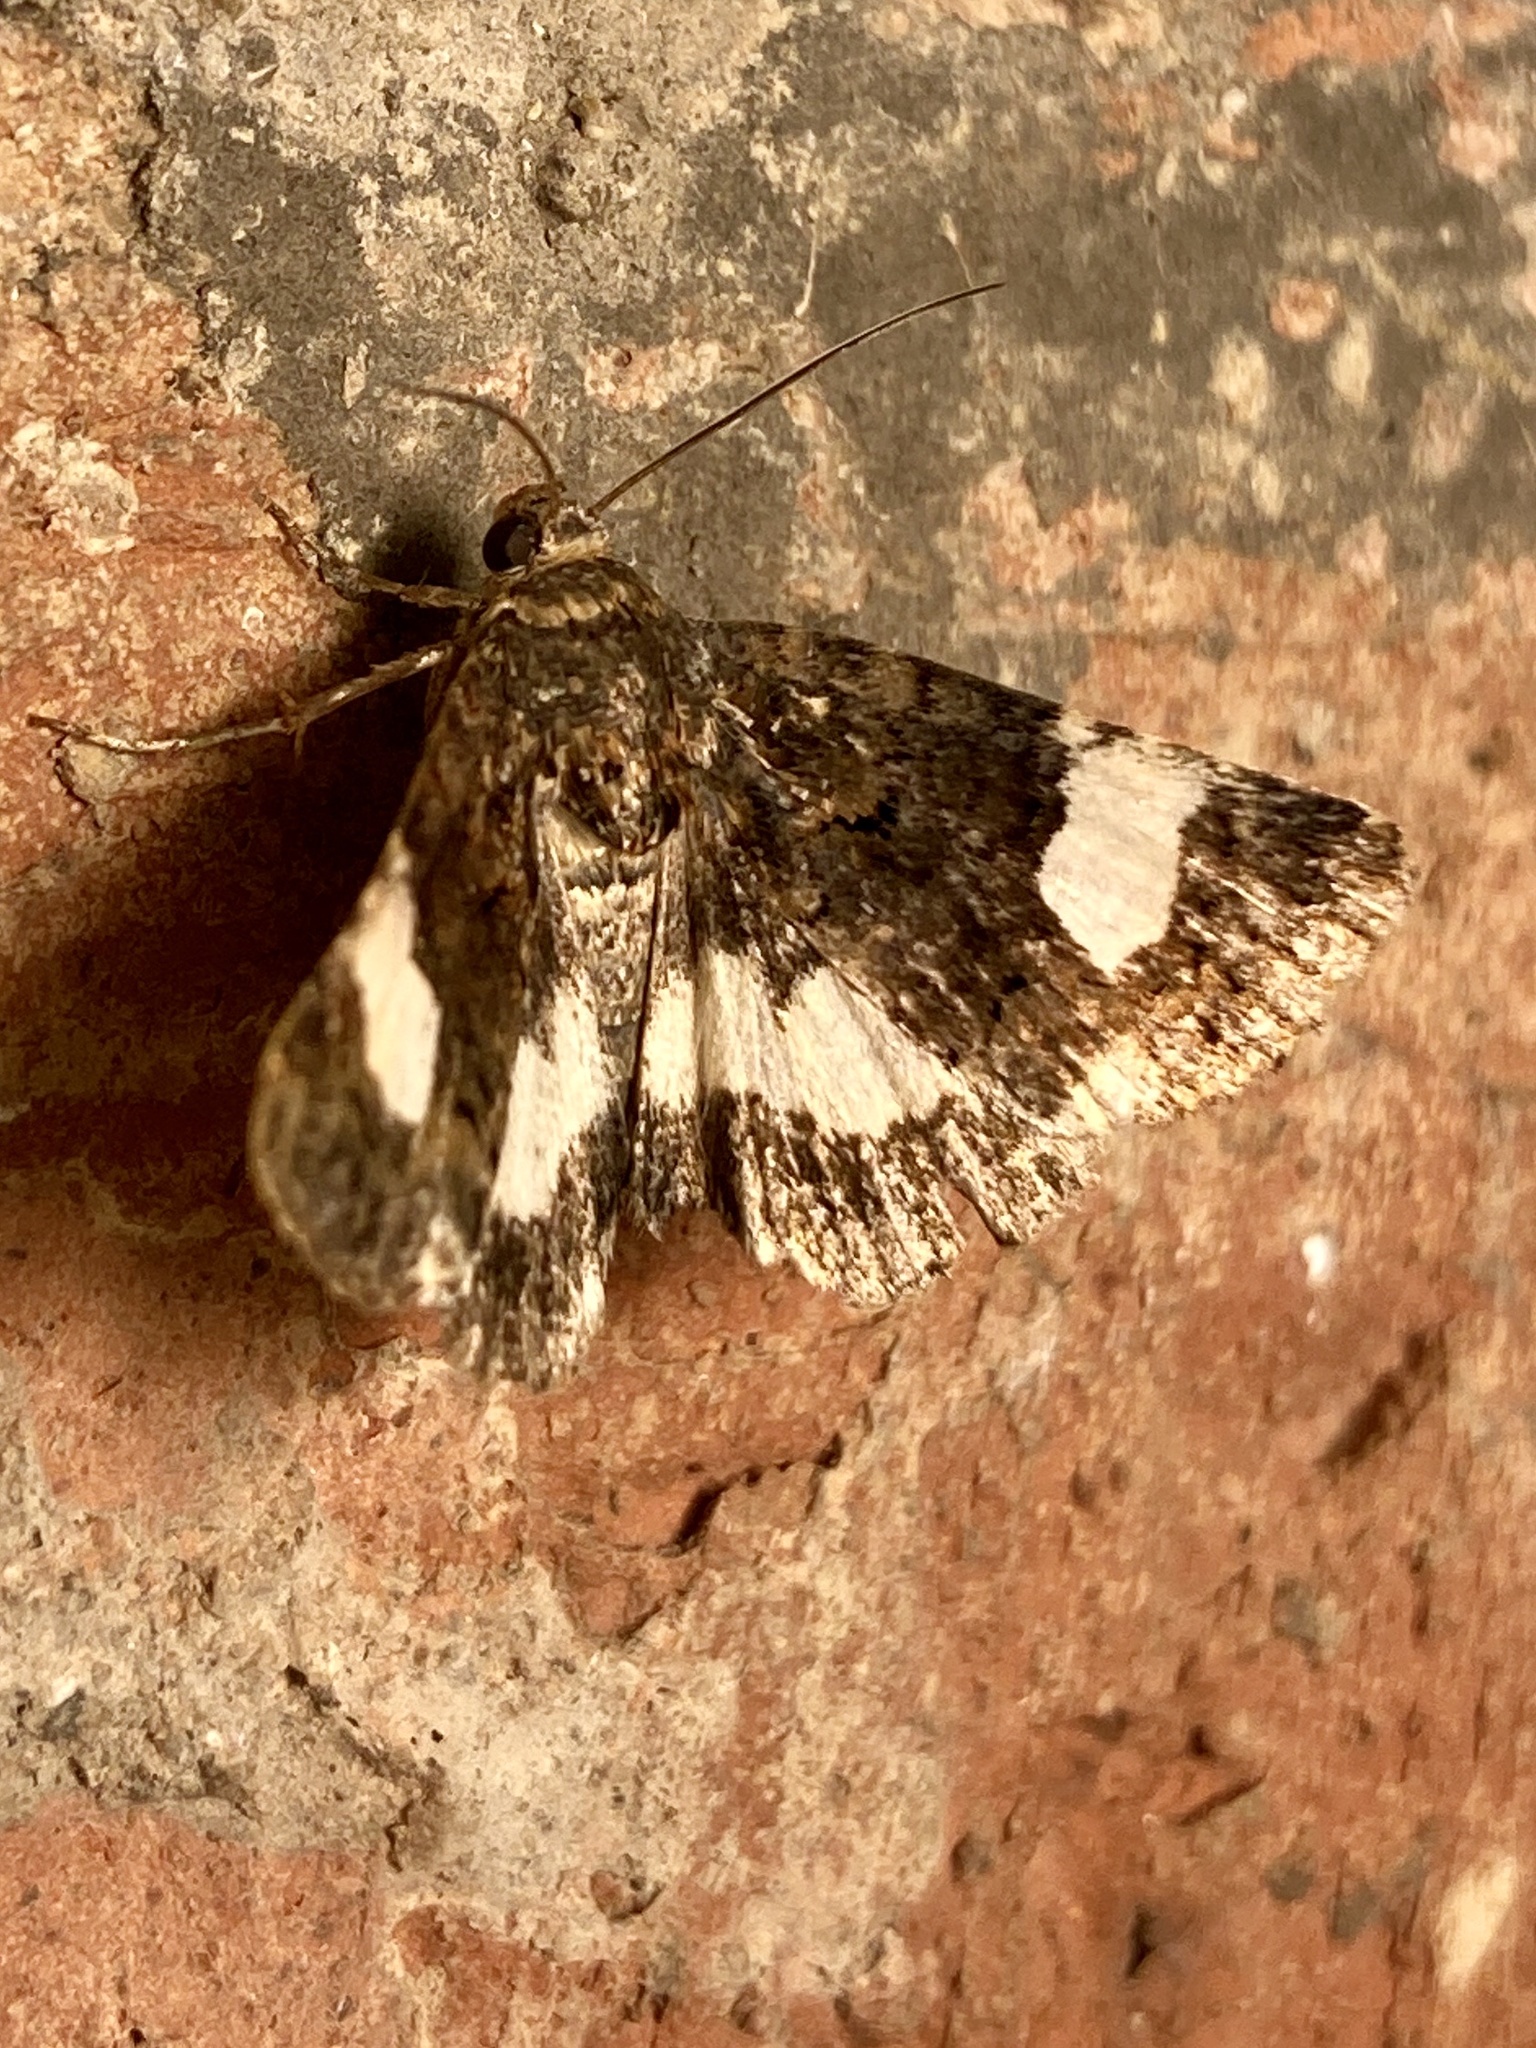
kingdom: Animalia
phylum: Arthropoda
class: Insecta
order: Lepidoptera
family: Erebidae
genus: Tyta
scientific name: Tyta luctuosa
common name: Four-spotted
